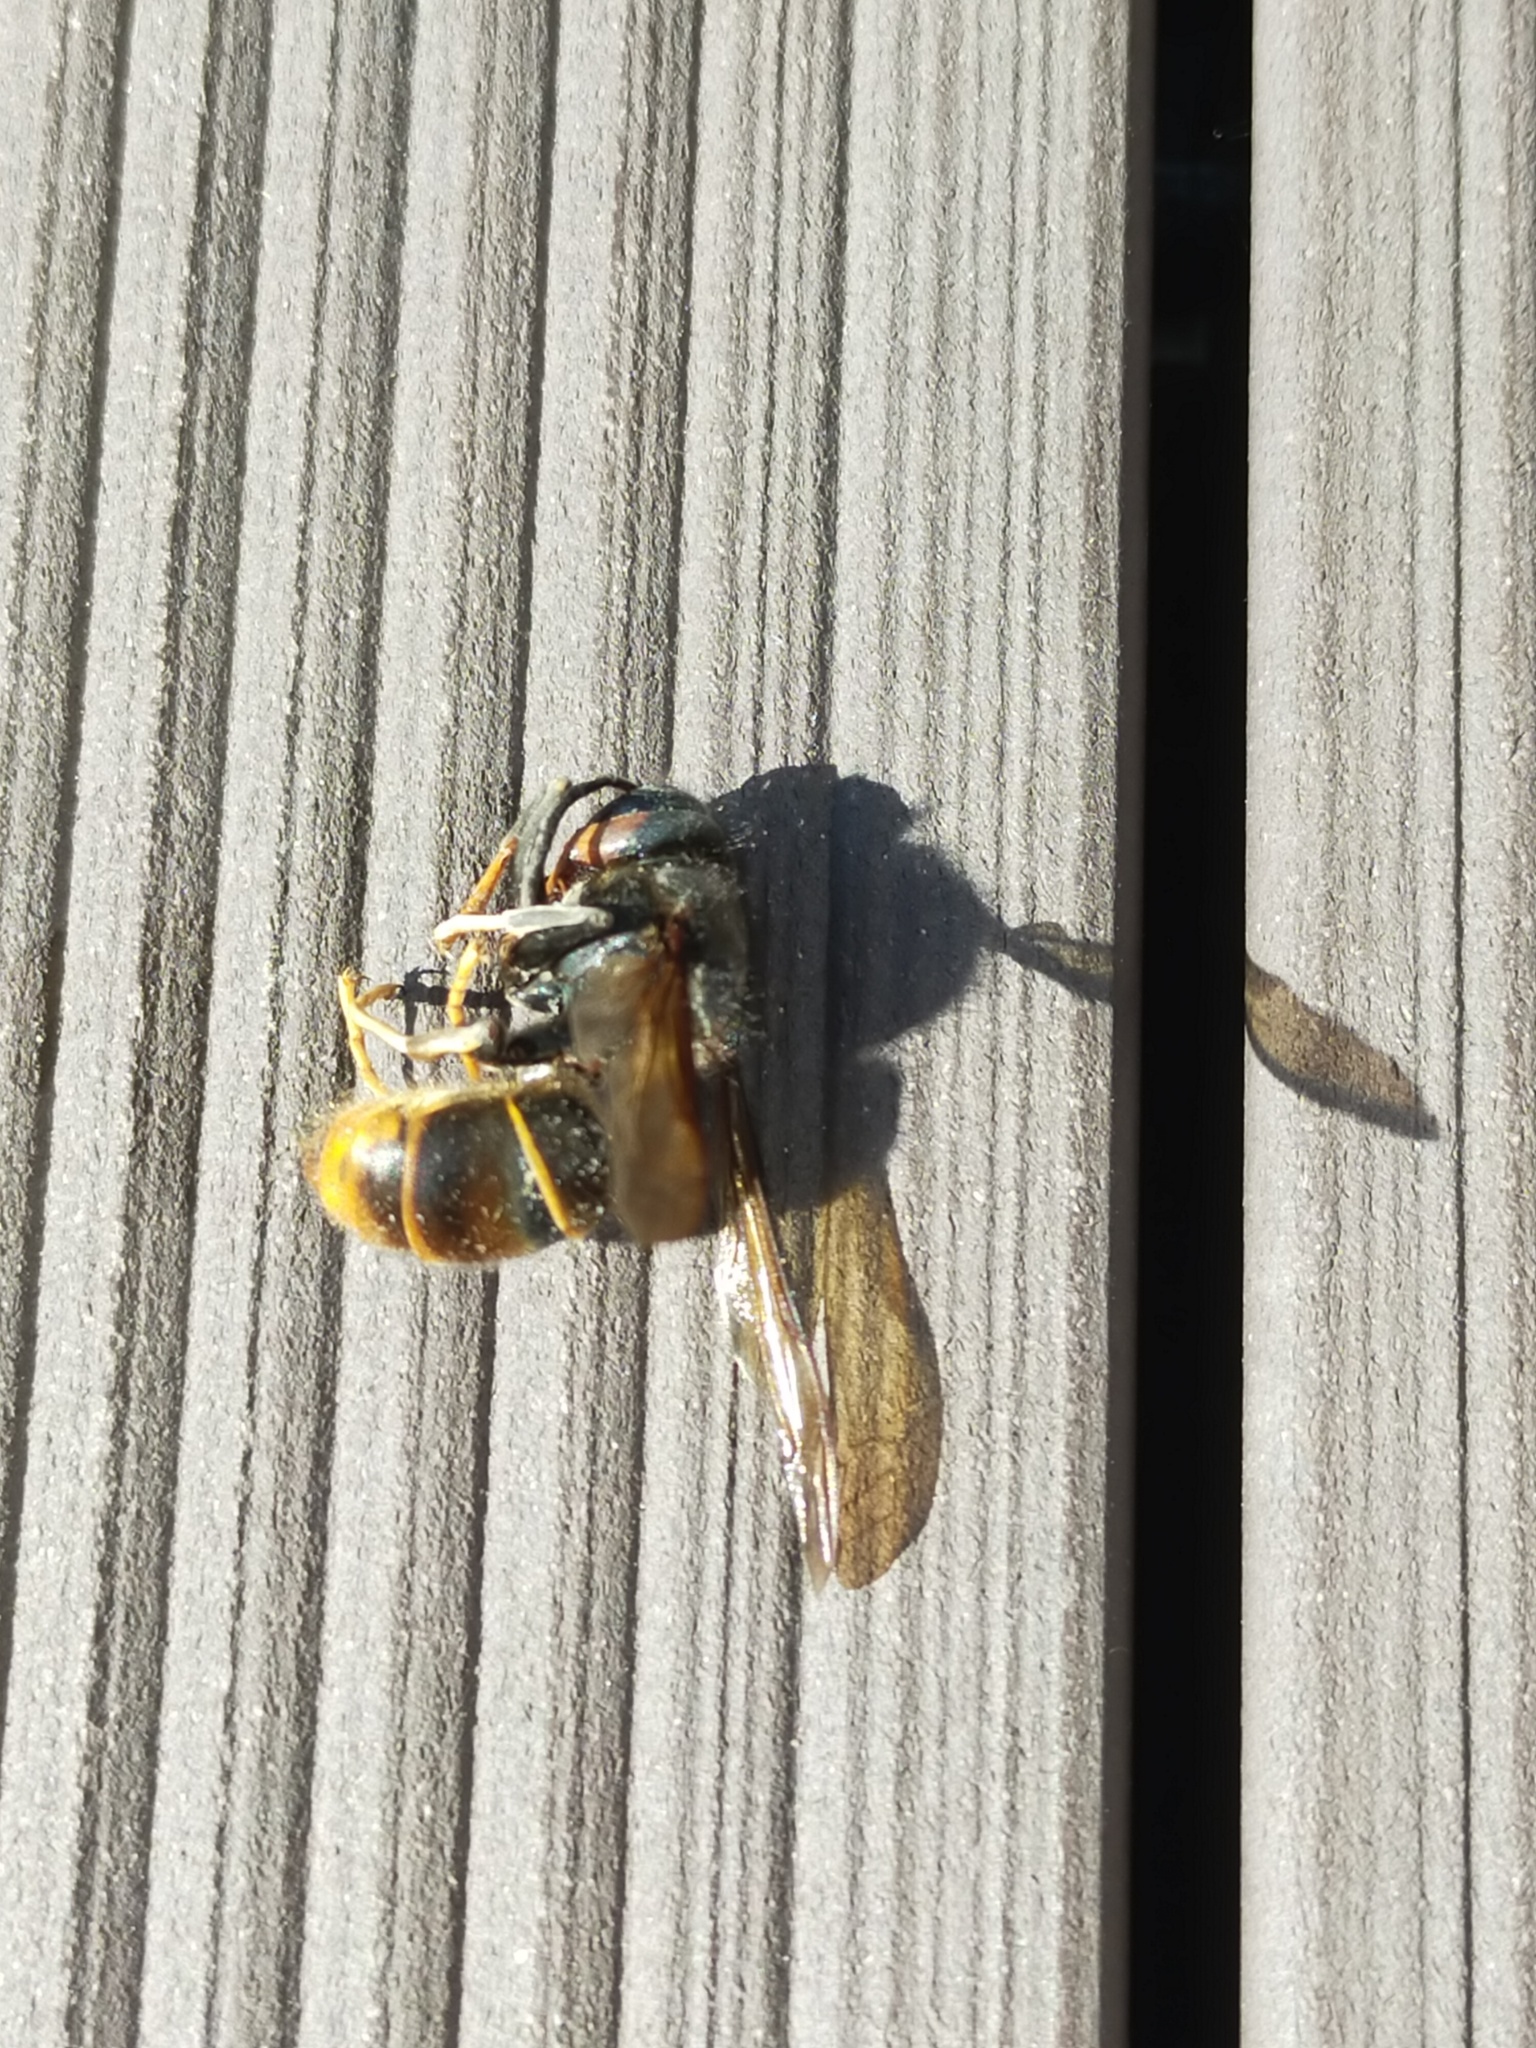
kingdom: Animalia
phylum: Arthropoda
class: Insecta
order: Hymenoptera
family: Vespidae
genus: Vespa
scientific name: Vespa velutina
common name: Asian hornet
